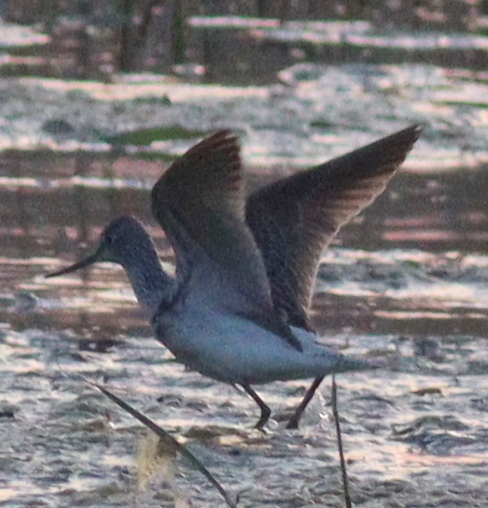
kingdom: Animalia
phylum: Chordata
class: Aves
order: Charadriiformes
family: Scolopacidae
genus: Tringa
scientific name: Tringa nebularia
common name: Common greenshank
